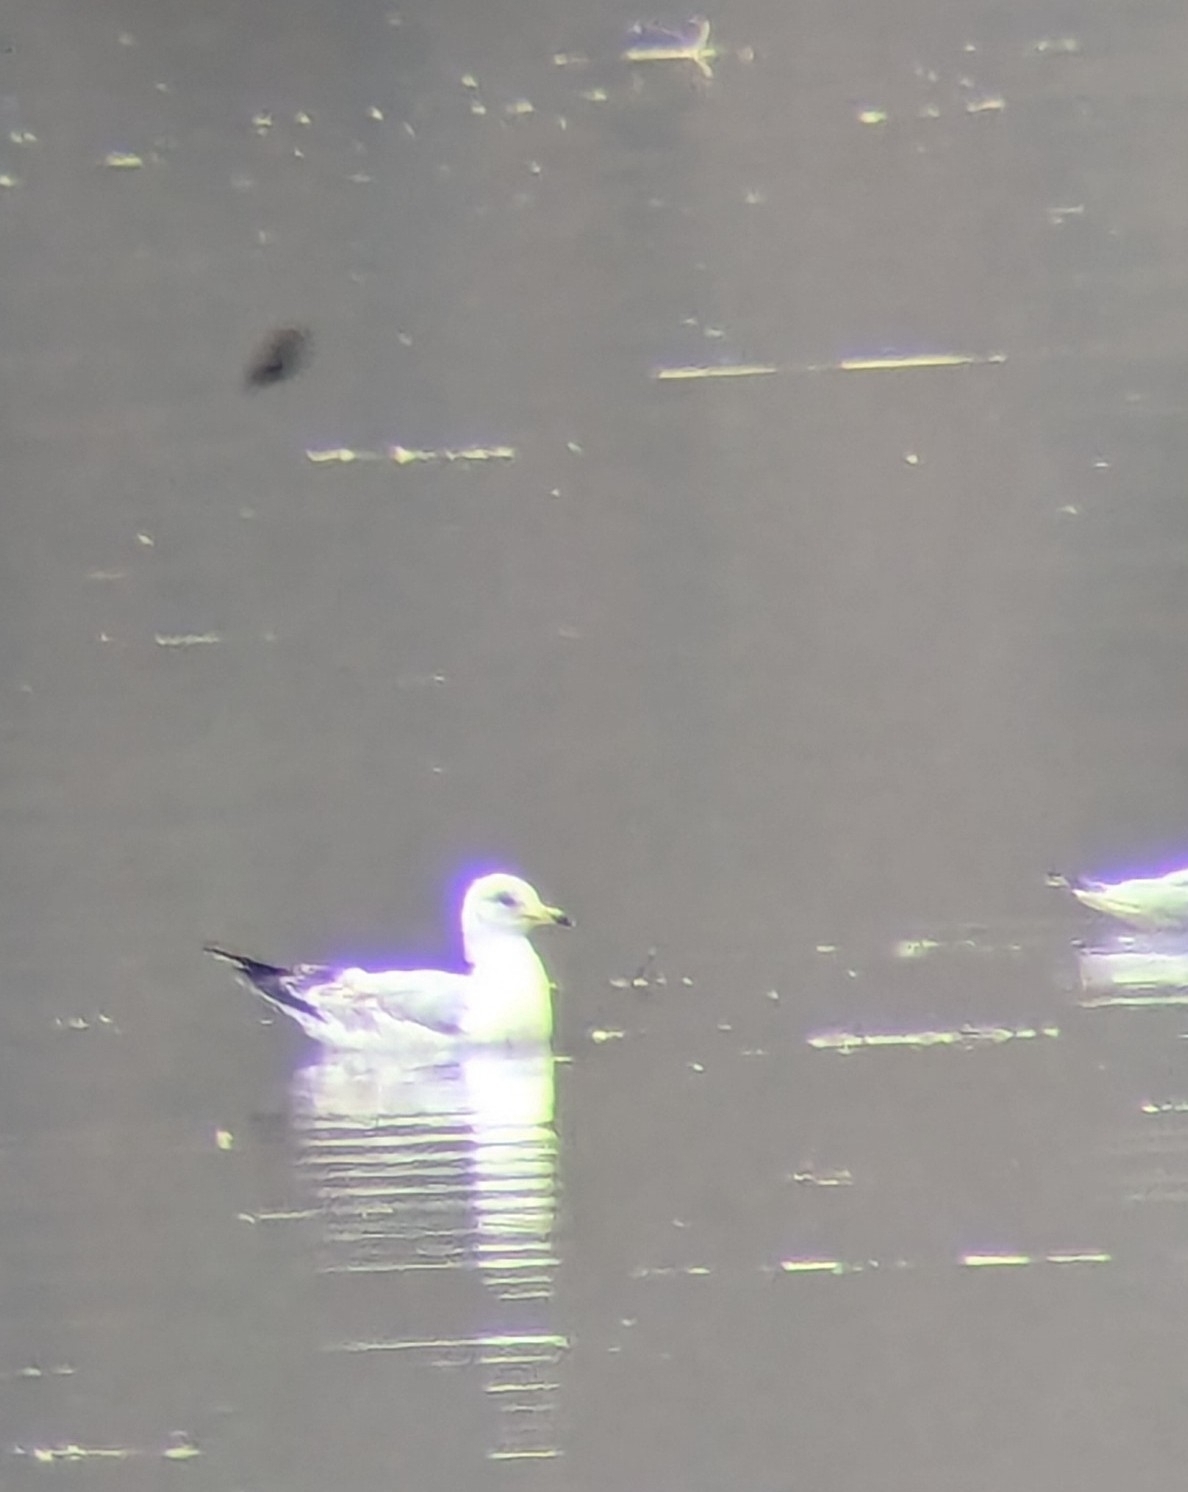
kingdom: Animalia
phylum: Chordata
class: Aves
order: Charadriiformes
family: Laridae
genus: Larus
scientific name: Larus delawarensis
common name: Ring-billed gull
